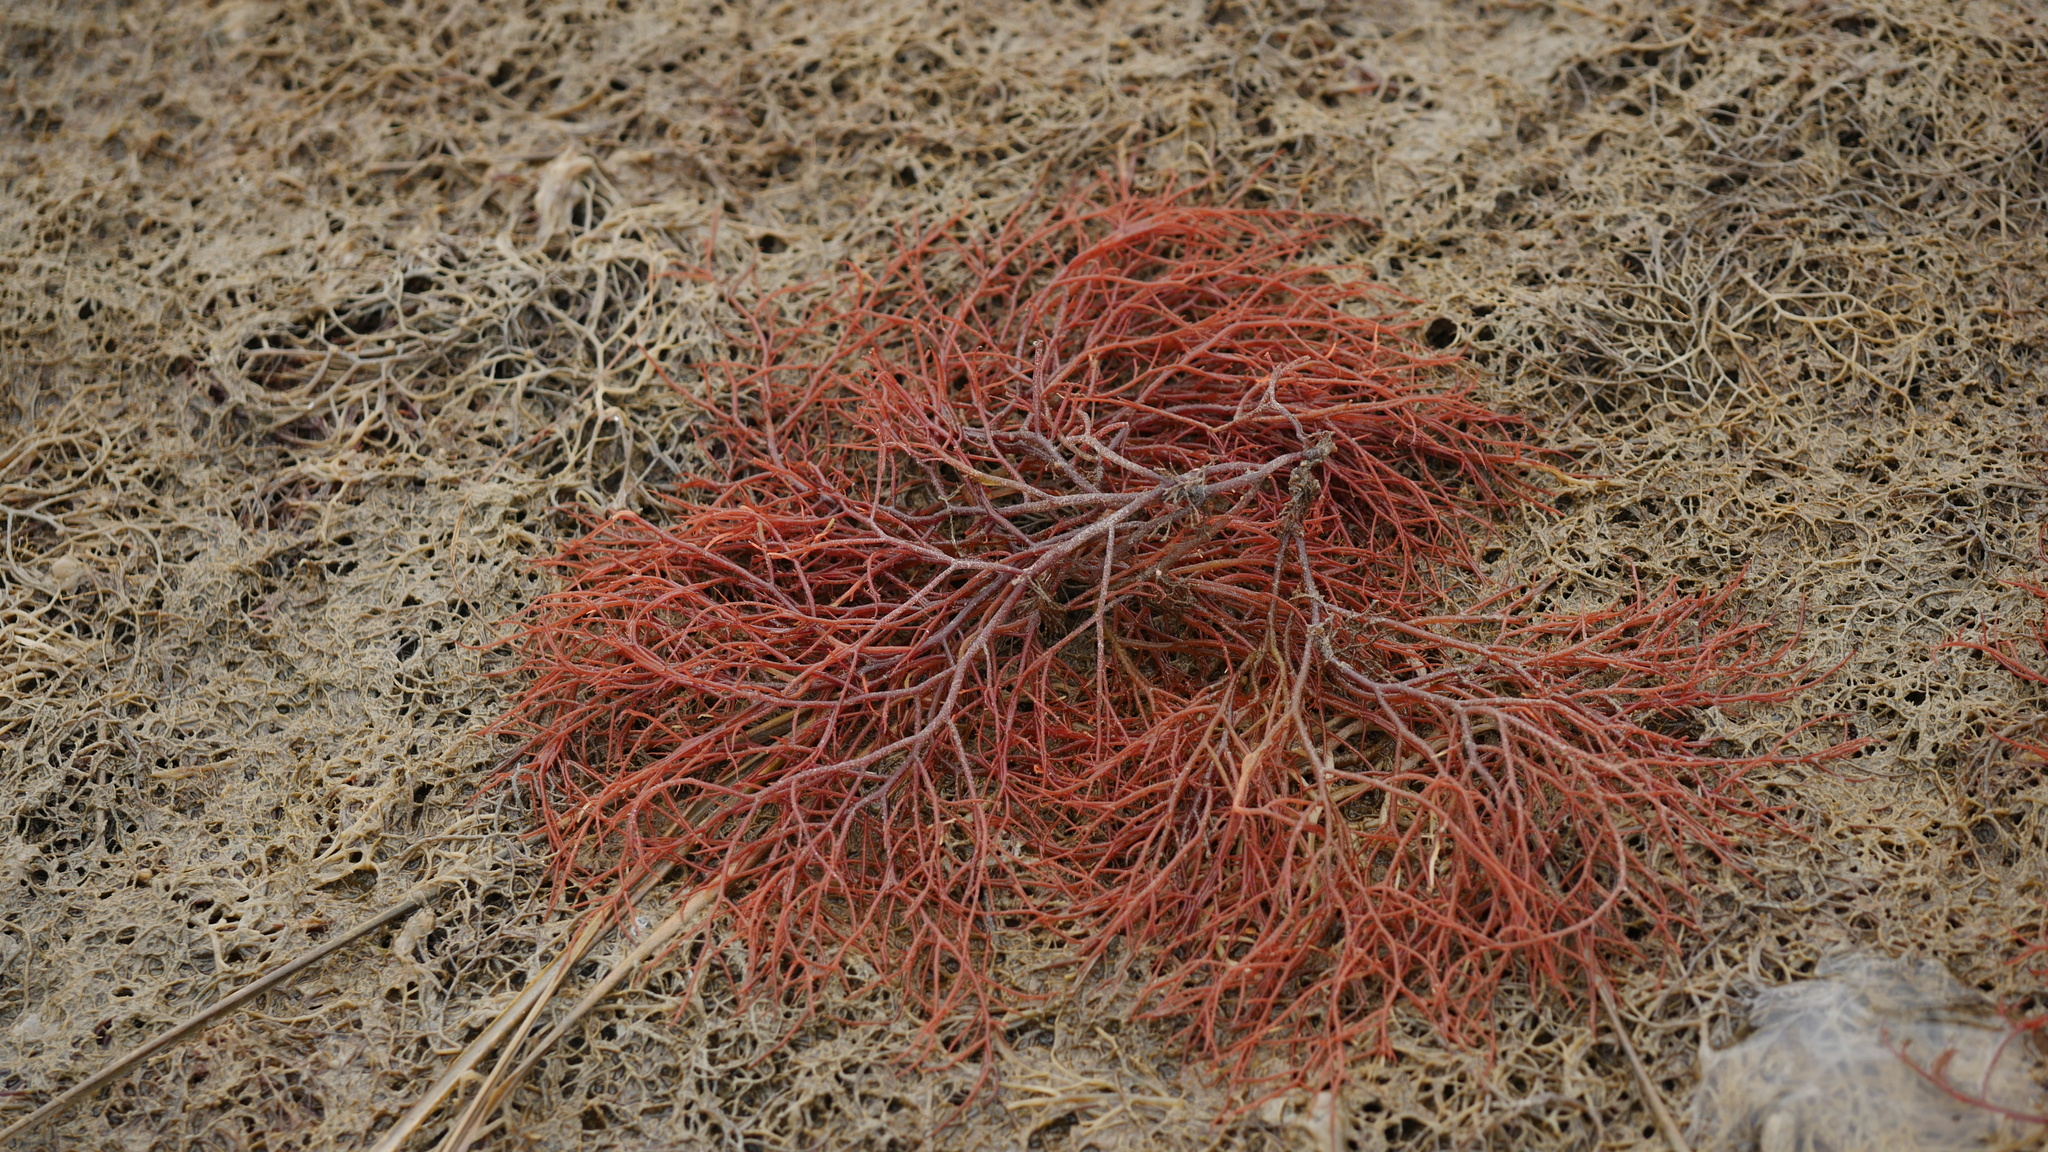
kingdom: Plantae
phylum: Rhodophyta
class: Florideophyceae
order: Gigartinales
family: Solieriaceae
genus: Sarcodiotheca
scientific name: Sarcodiotheca gaudichaudii
